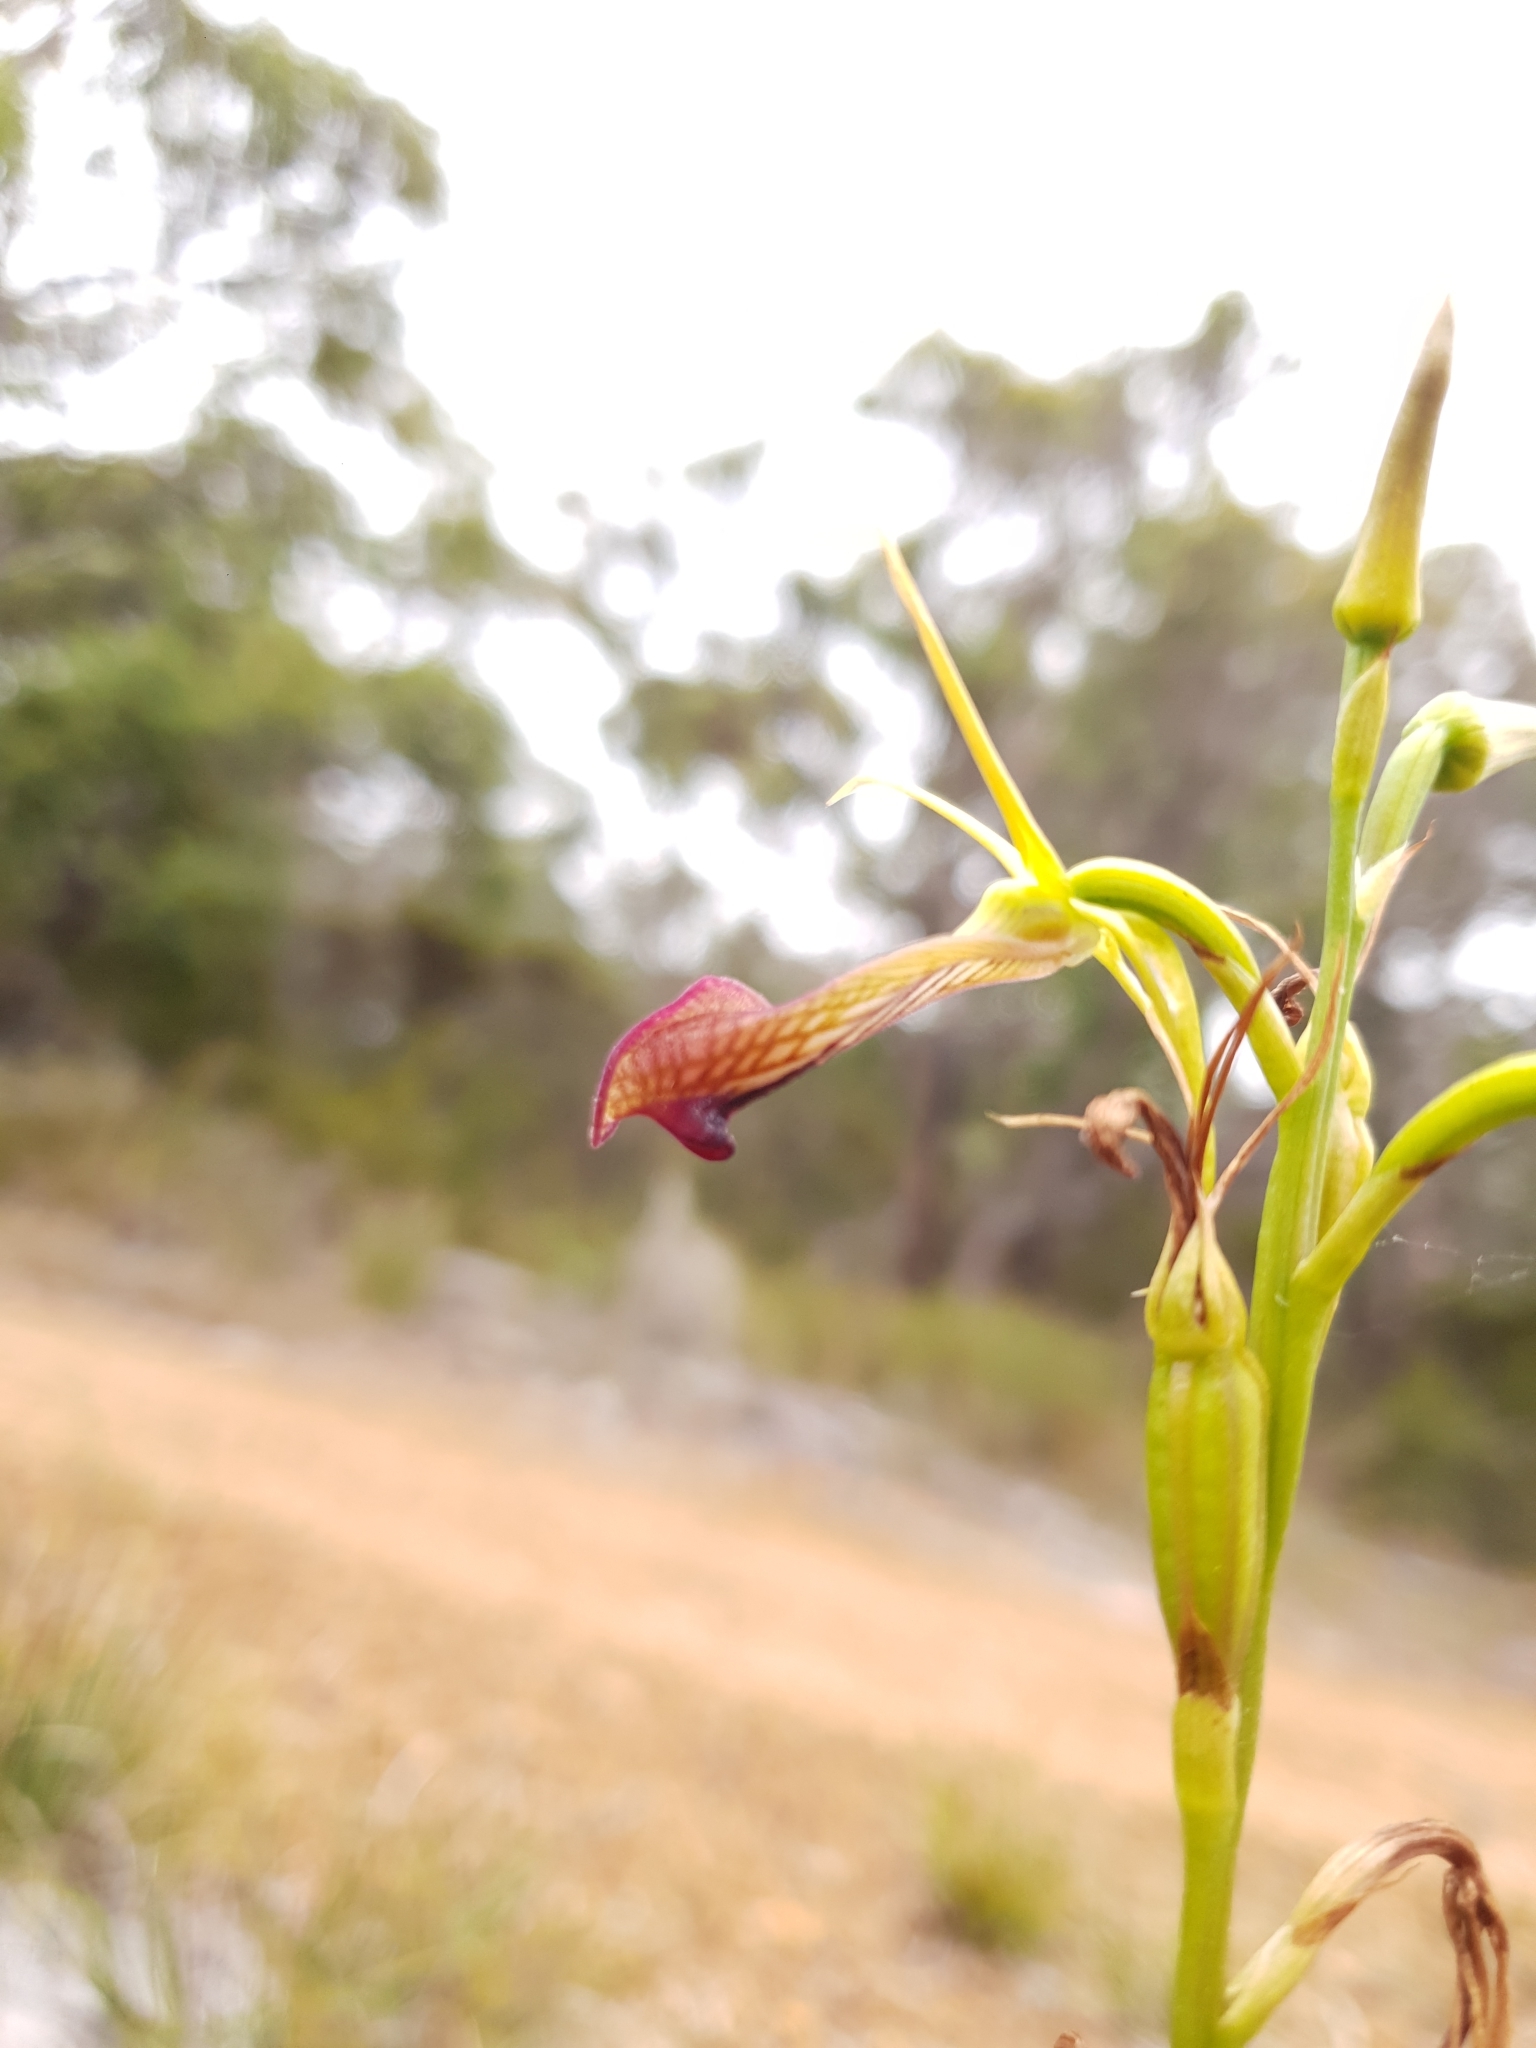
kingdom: Plantae
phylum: Tracheophyta
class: Liliopsida
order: Asparagales
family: Orchidaceae
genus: Cryptostylis
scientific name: Cryptostylis ovata
